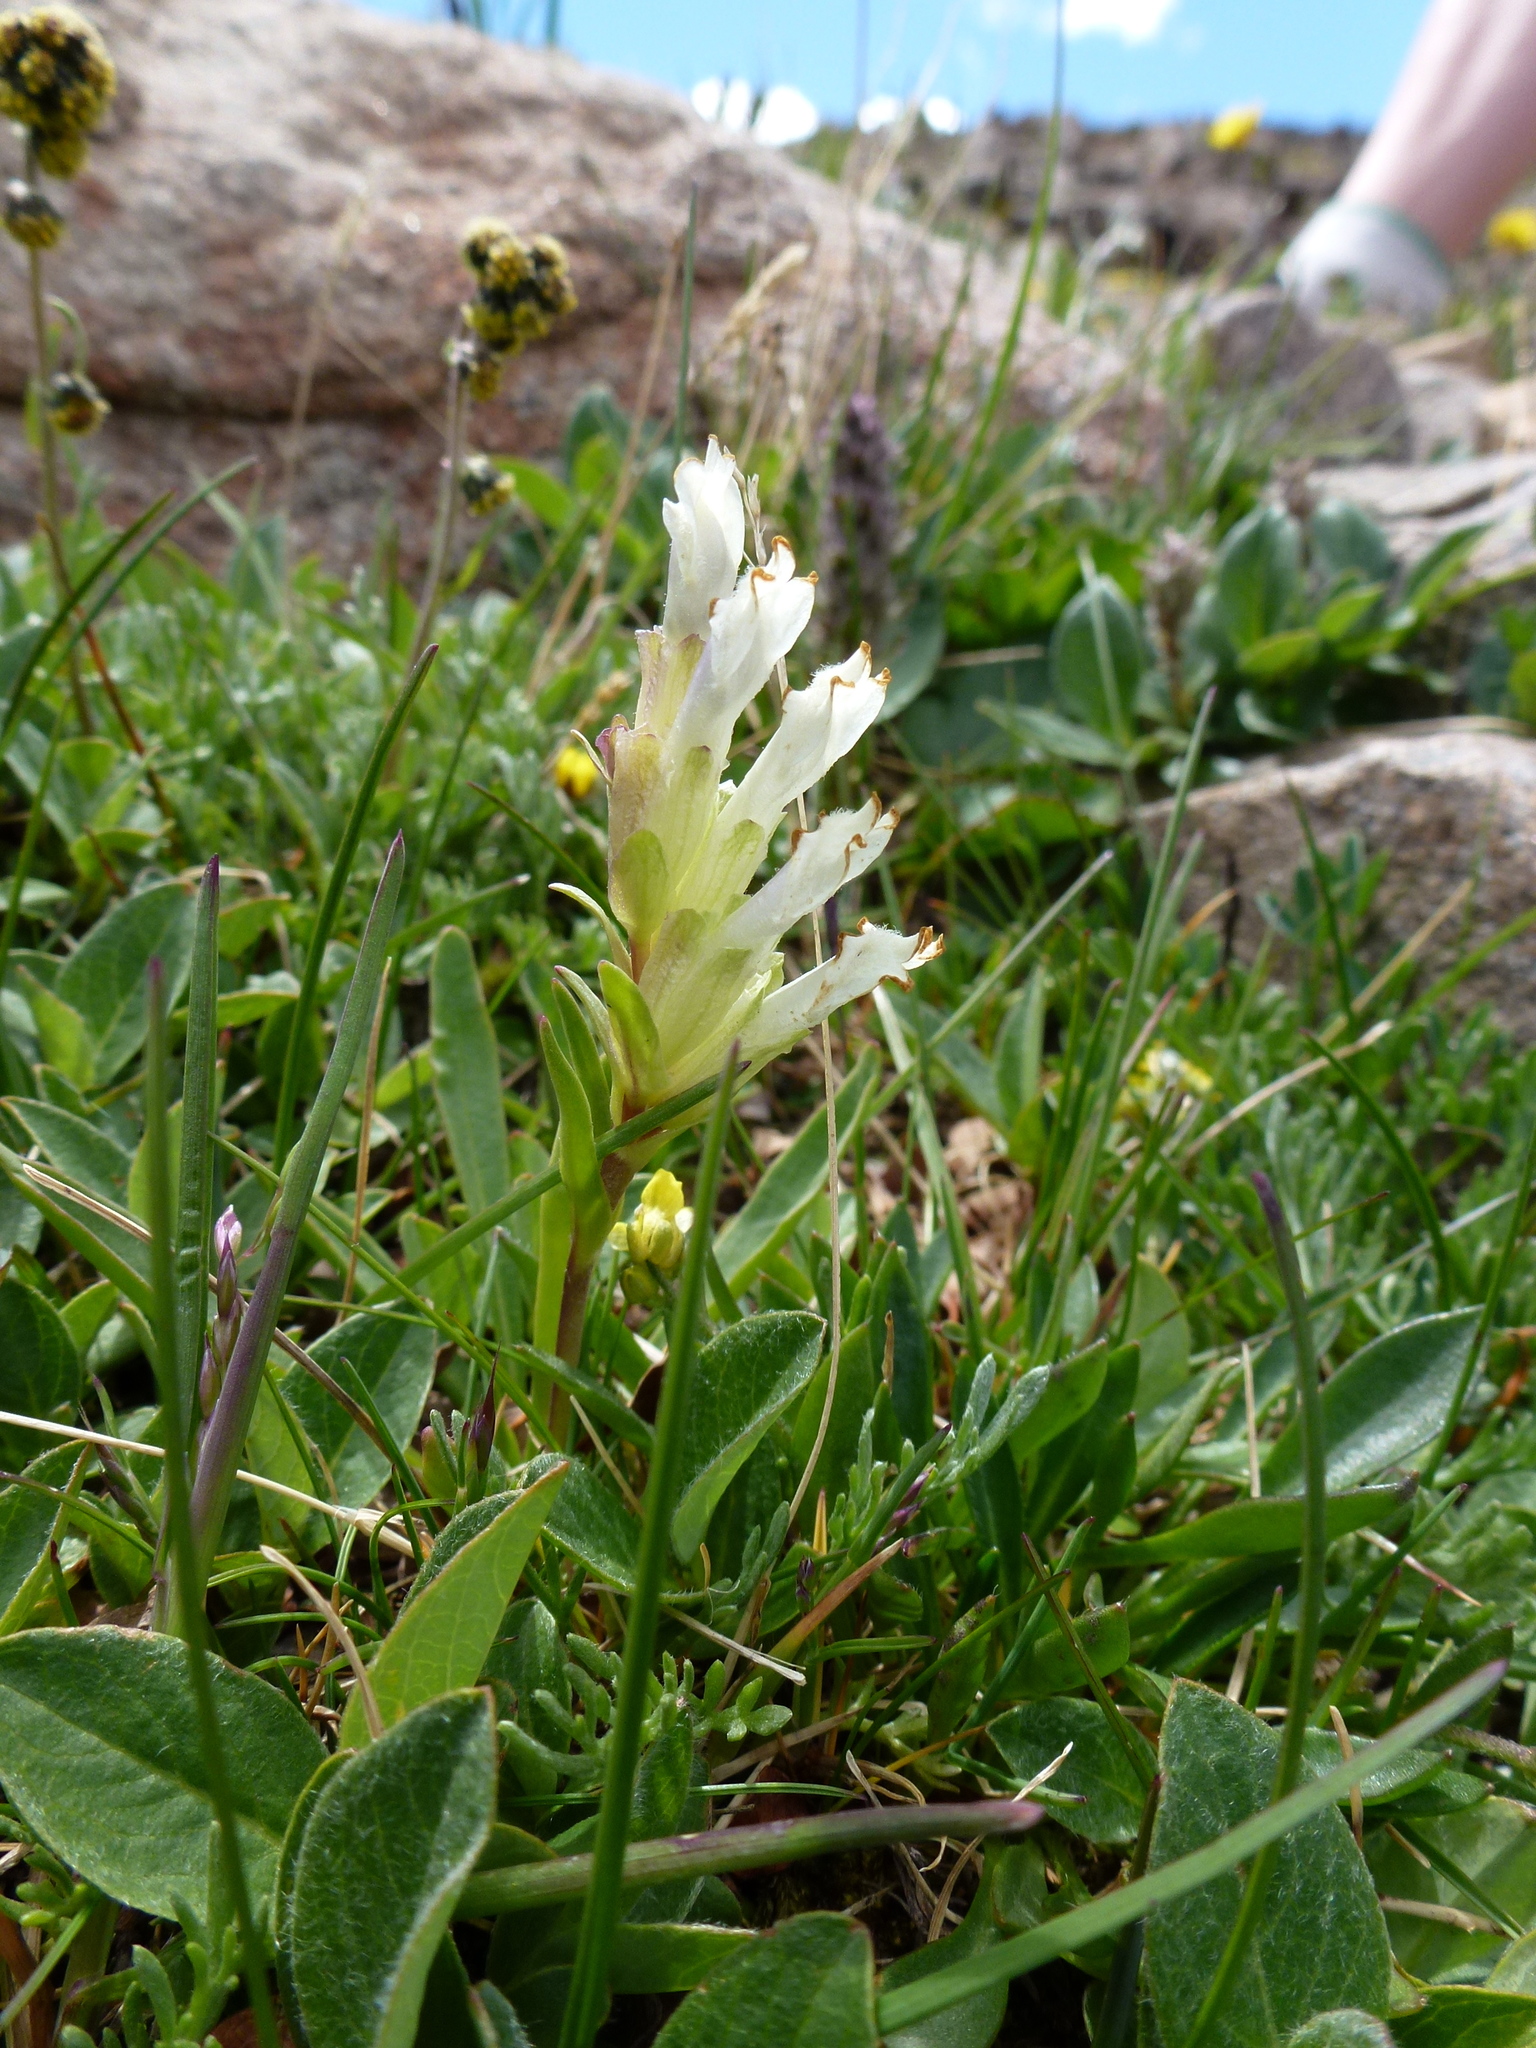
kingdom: Plantae
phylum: Tracheophyta
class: Magnoliopsida
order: Lamiales
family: Plantaginaceae
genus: Chionophila
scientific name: Chionophila jamesii
